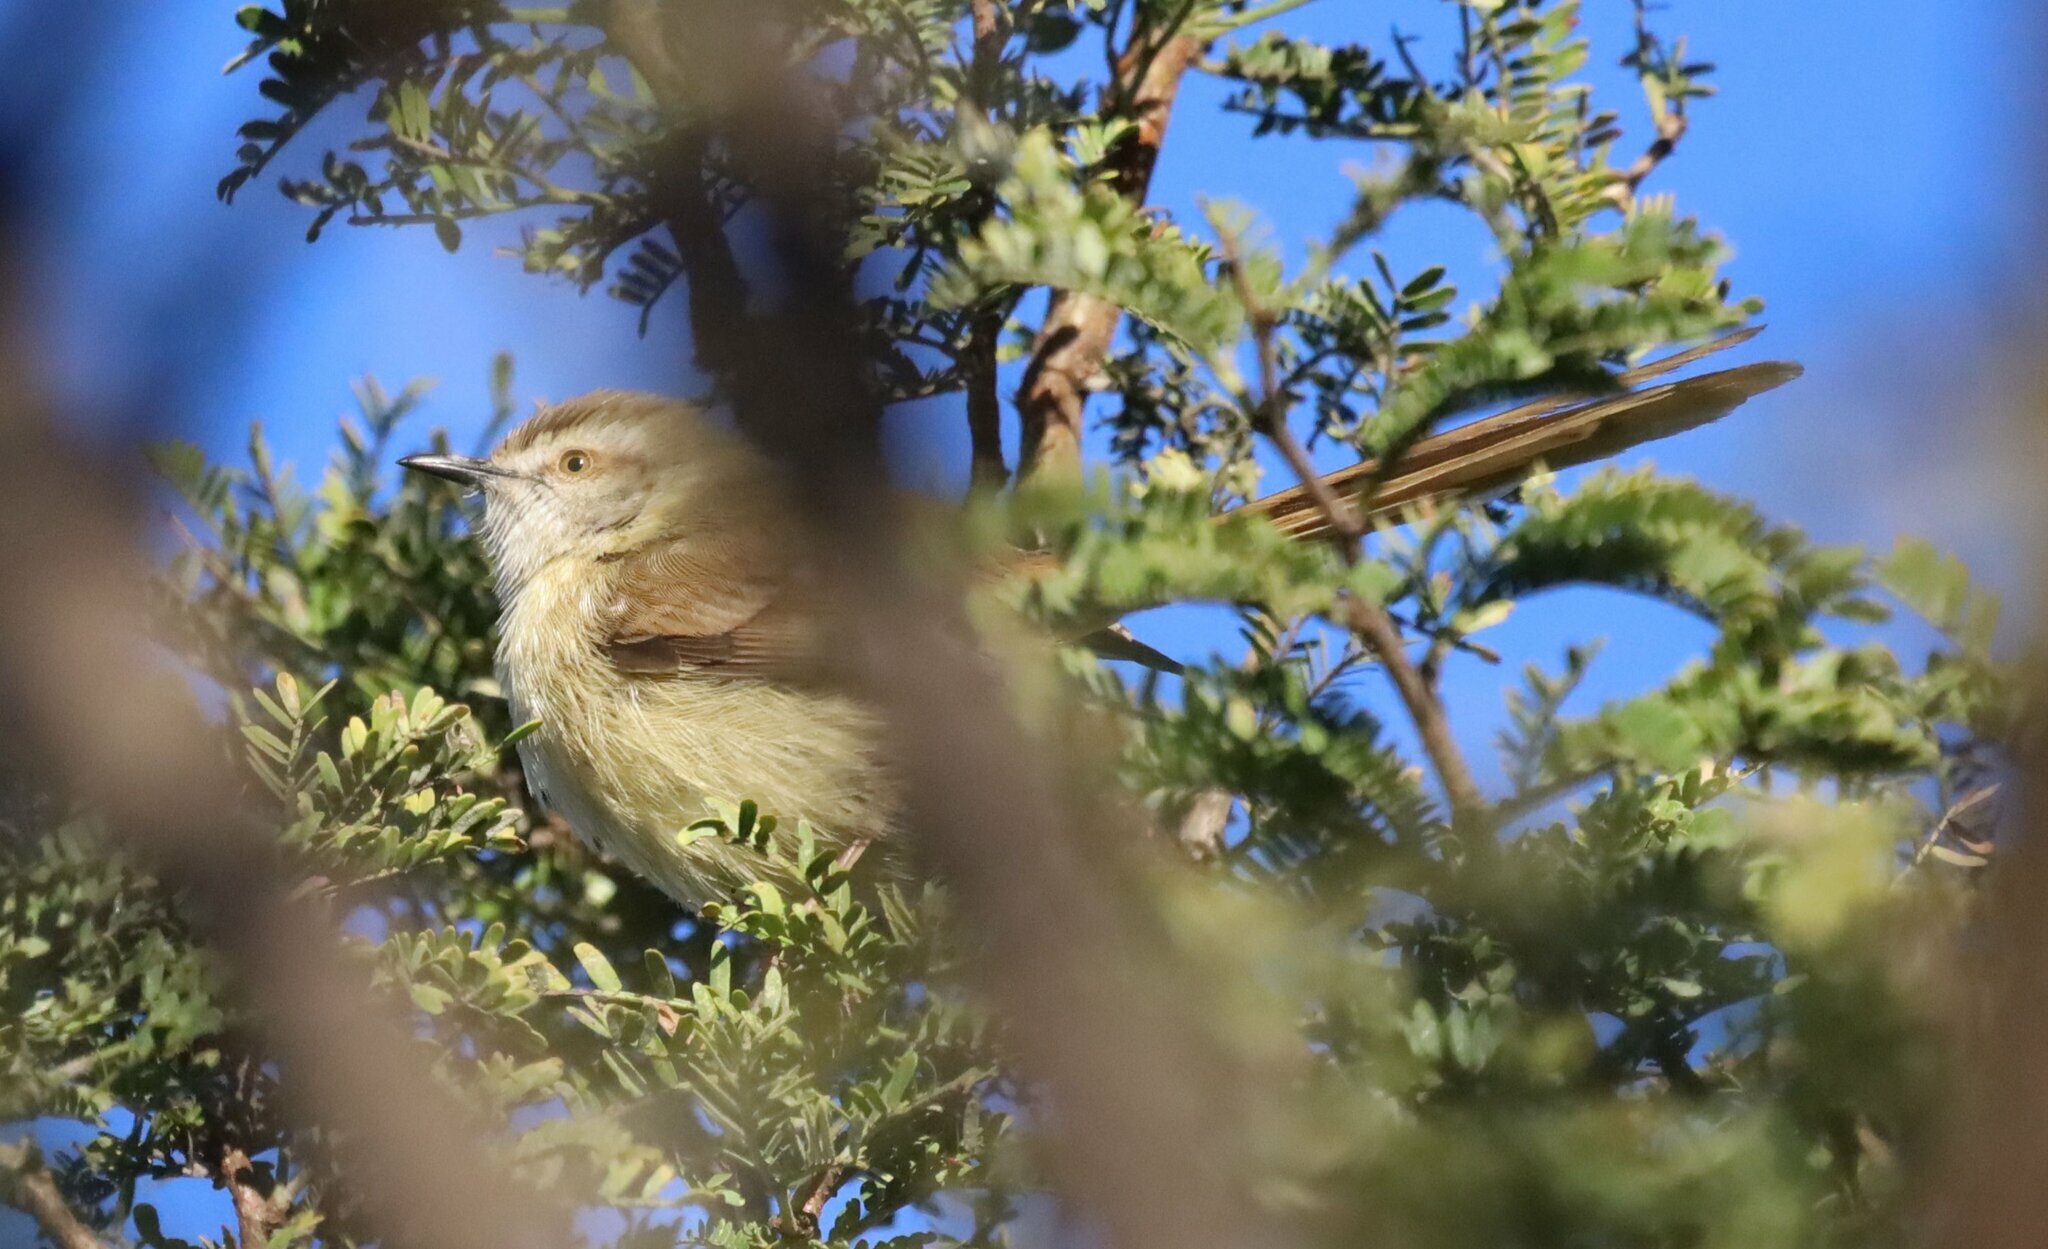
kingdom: Animalia
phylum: Chordata
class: Aves
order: Passeriformes
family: Cisticolidae
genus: Prinia
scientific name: Prinia flavicans
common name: Black-chested prinia
